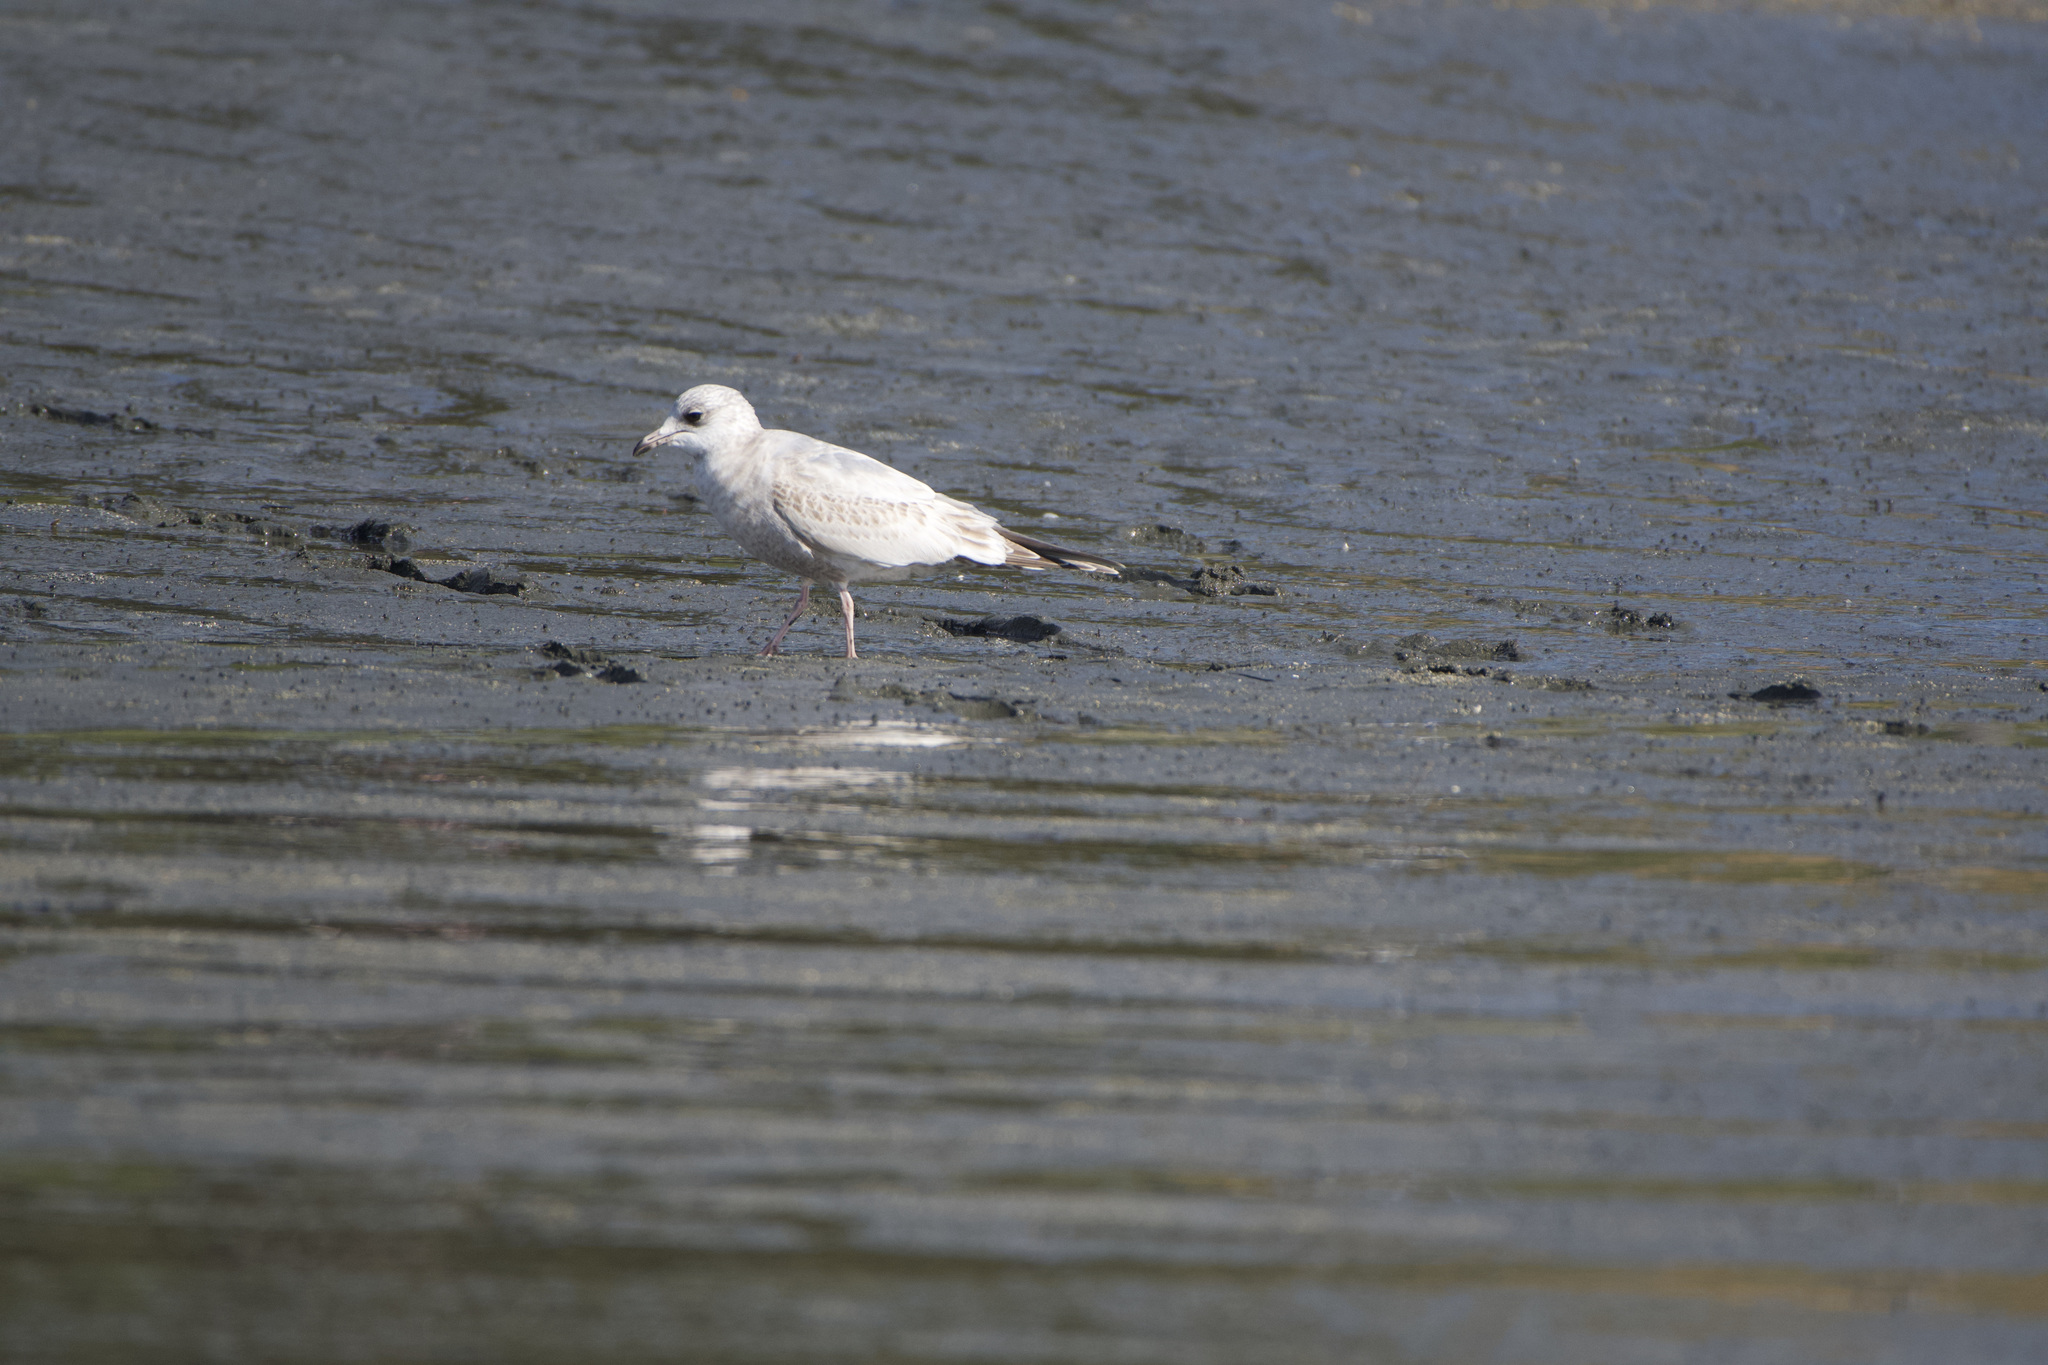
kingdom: Animalia
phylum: Chordata
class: Aves
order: Charadriiformes
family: Laridae
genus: Larus
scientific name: Larus brachyrhynchus
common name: Short-billed gull
